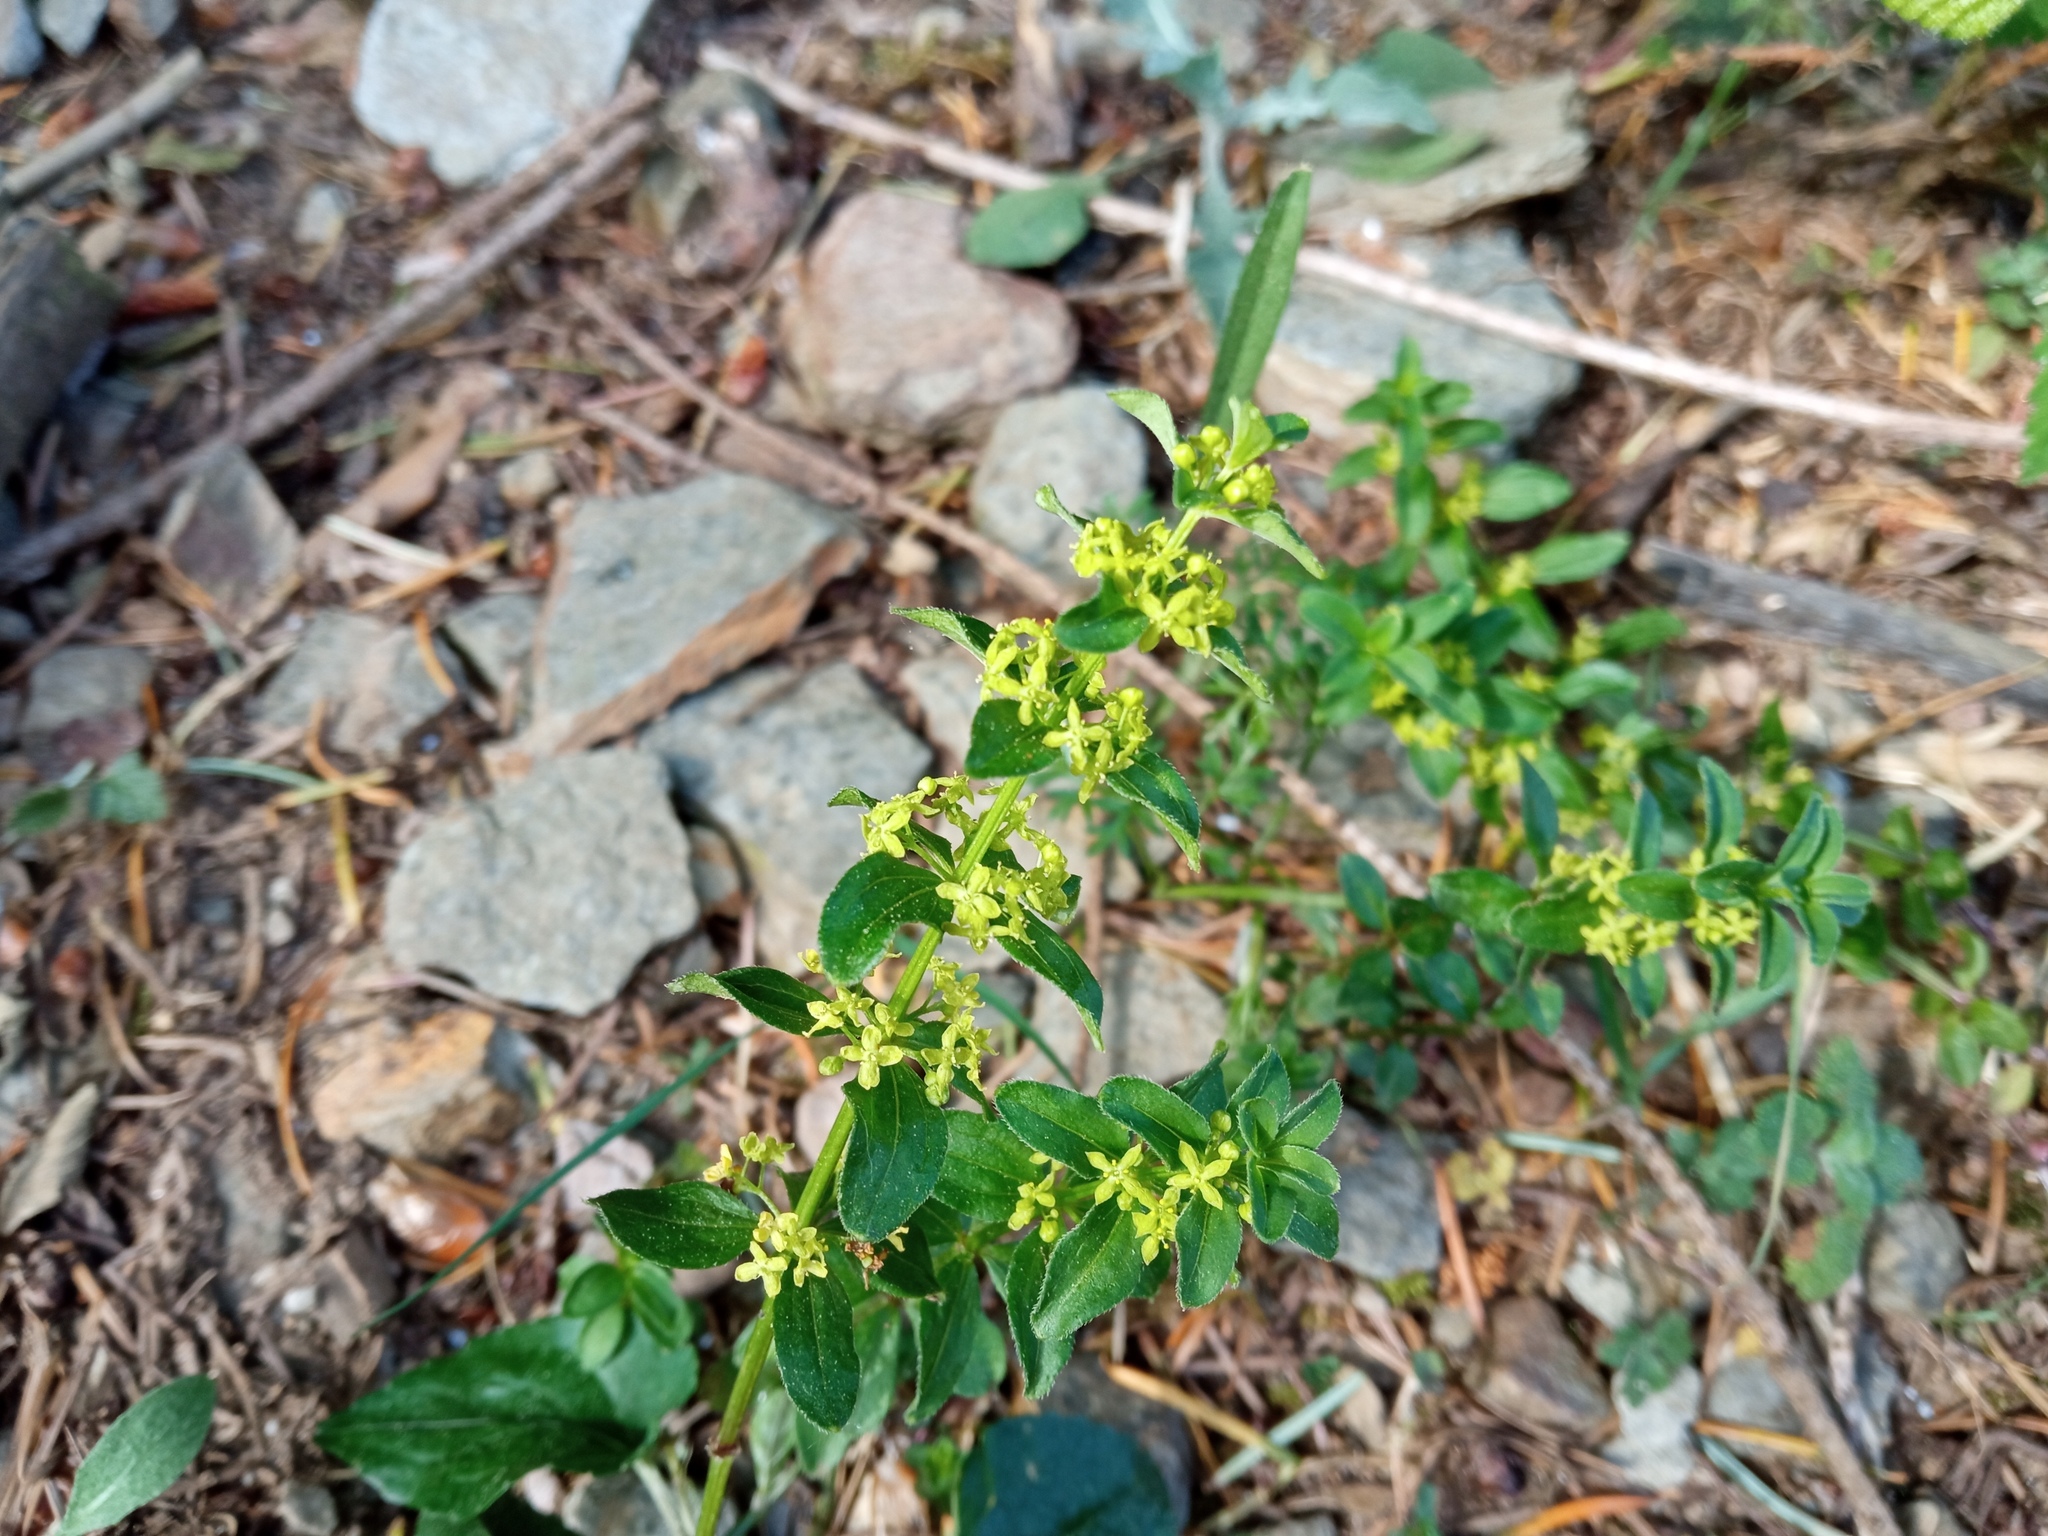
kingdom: Plantae
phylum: Tracheophyta
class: Magnoliopsida
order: Gentianales
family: Rubiaceae
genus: Cruciata
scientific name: Cruciata glabra
